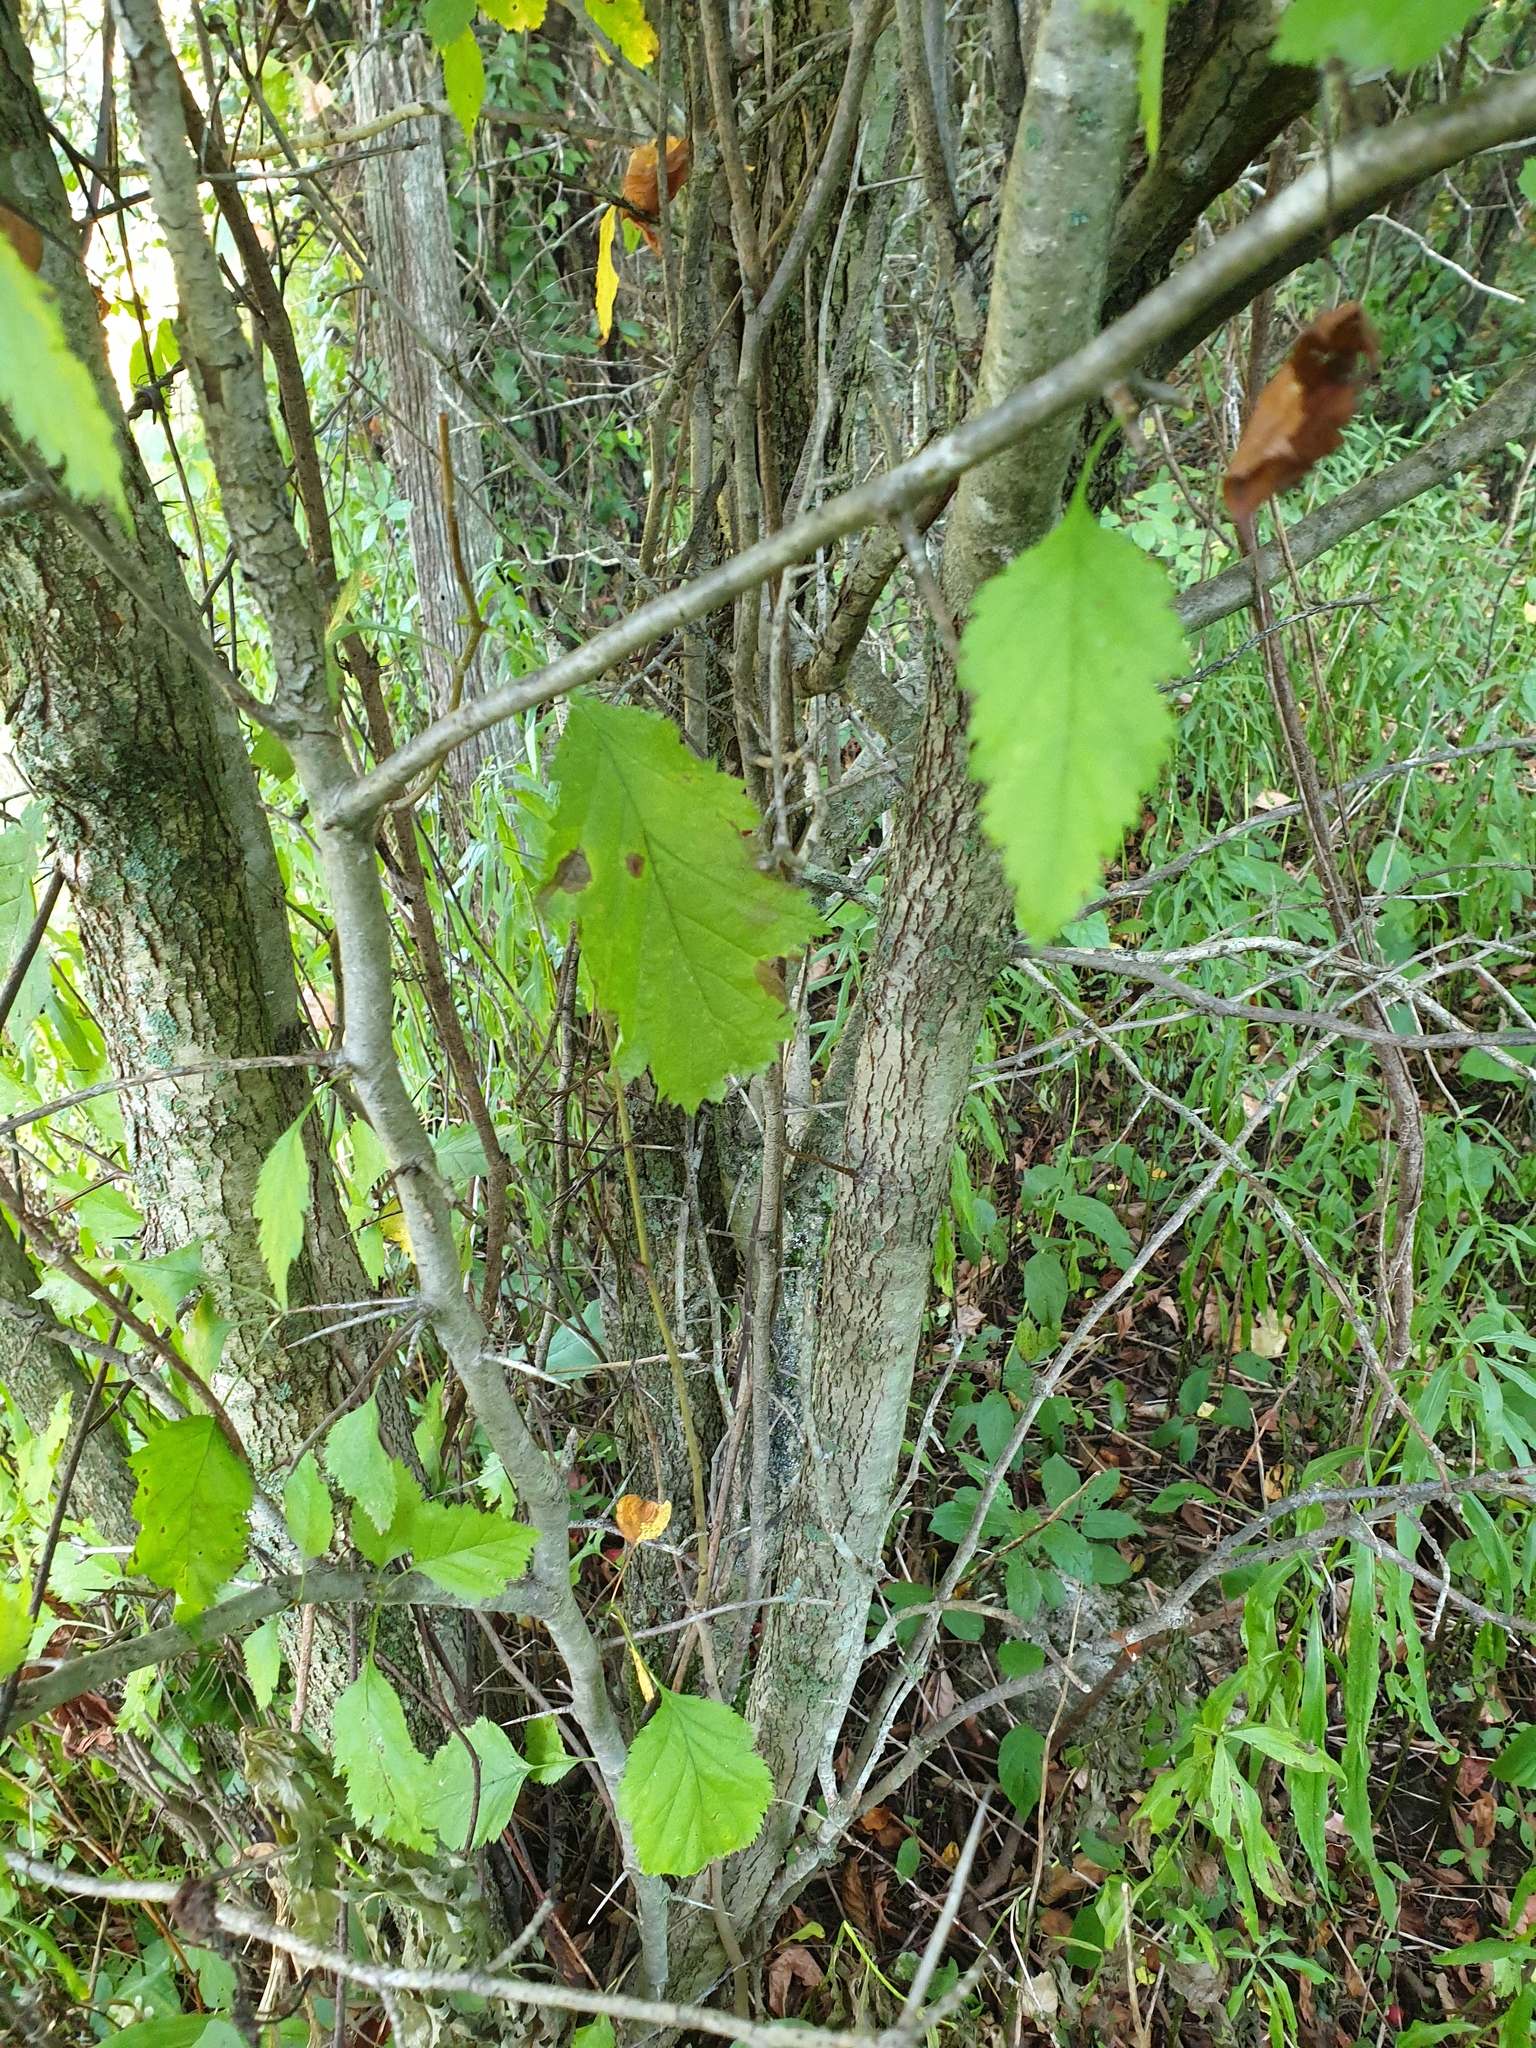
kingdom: Plantae
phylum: Tracheophyta
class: Magnoliopsida
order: Rosales
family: Rosaceae
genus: Crataegus
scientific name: Crataegus holmesiana
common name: Holmes' hawthorn
